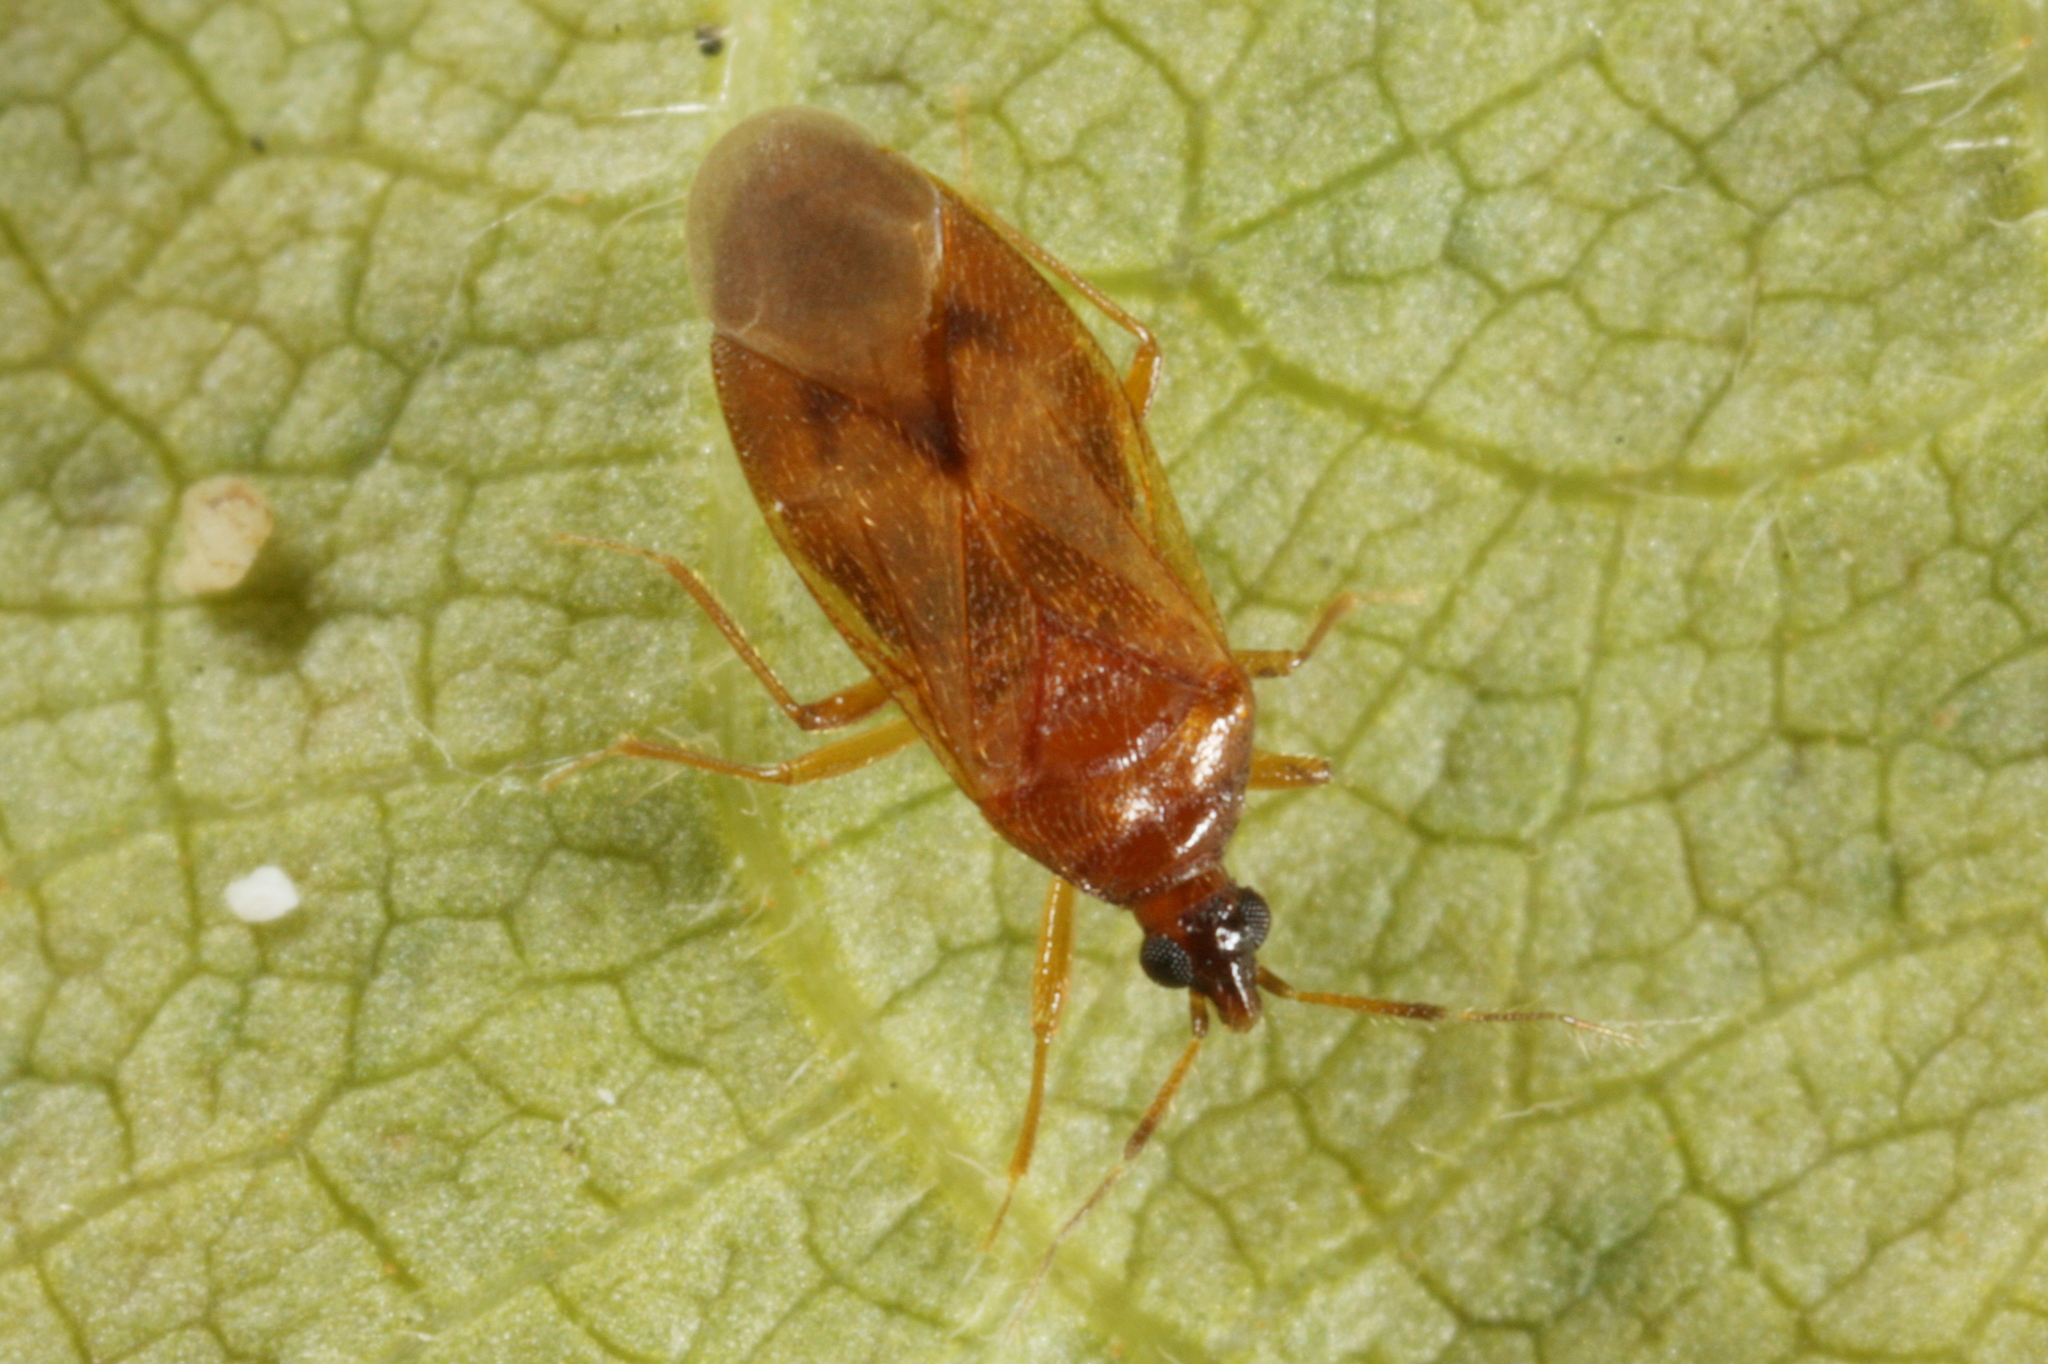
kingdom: Animalia
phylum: Arthropoda
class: Insecta
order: Hemiptera
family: Anthocoridae
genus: Amphiareus
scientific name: Amphiareus obscuriceps
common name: Minute pirate bug
